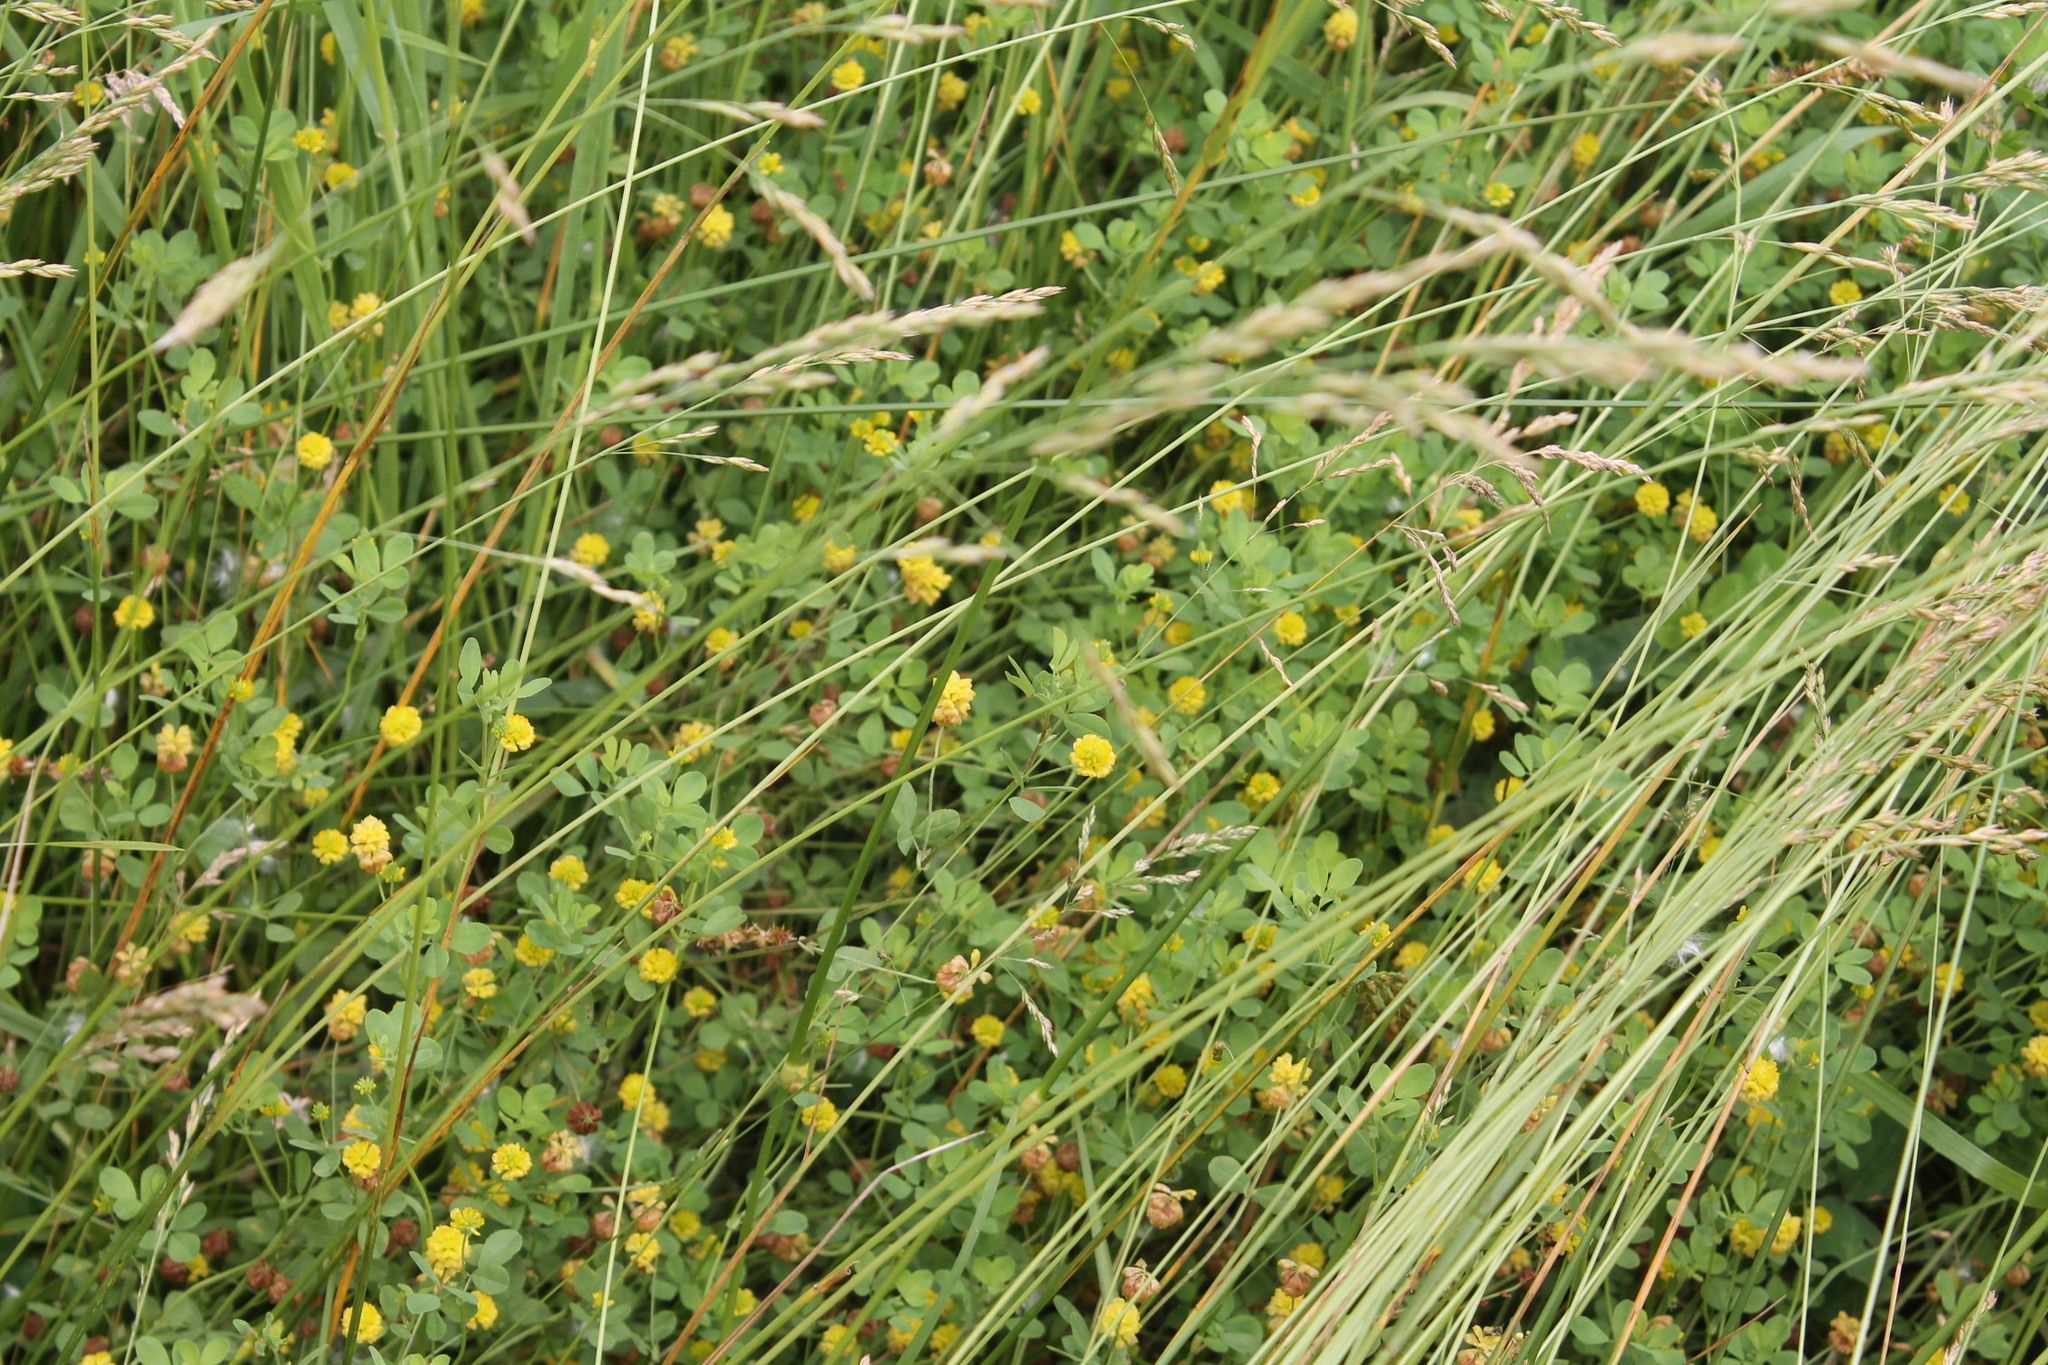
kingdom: Plantae
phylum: Tracheophyta
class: Magnoliopsida
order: Fabales
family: Fabaceae
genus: Trifolium
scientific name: Trifolium campestre
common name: Field clover
